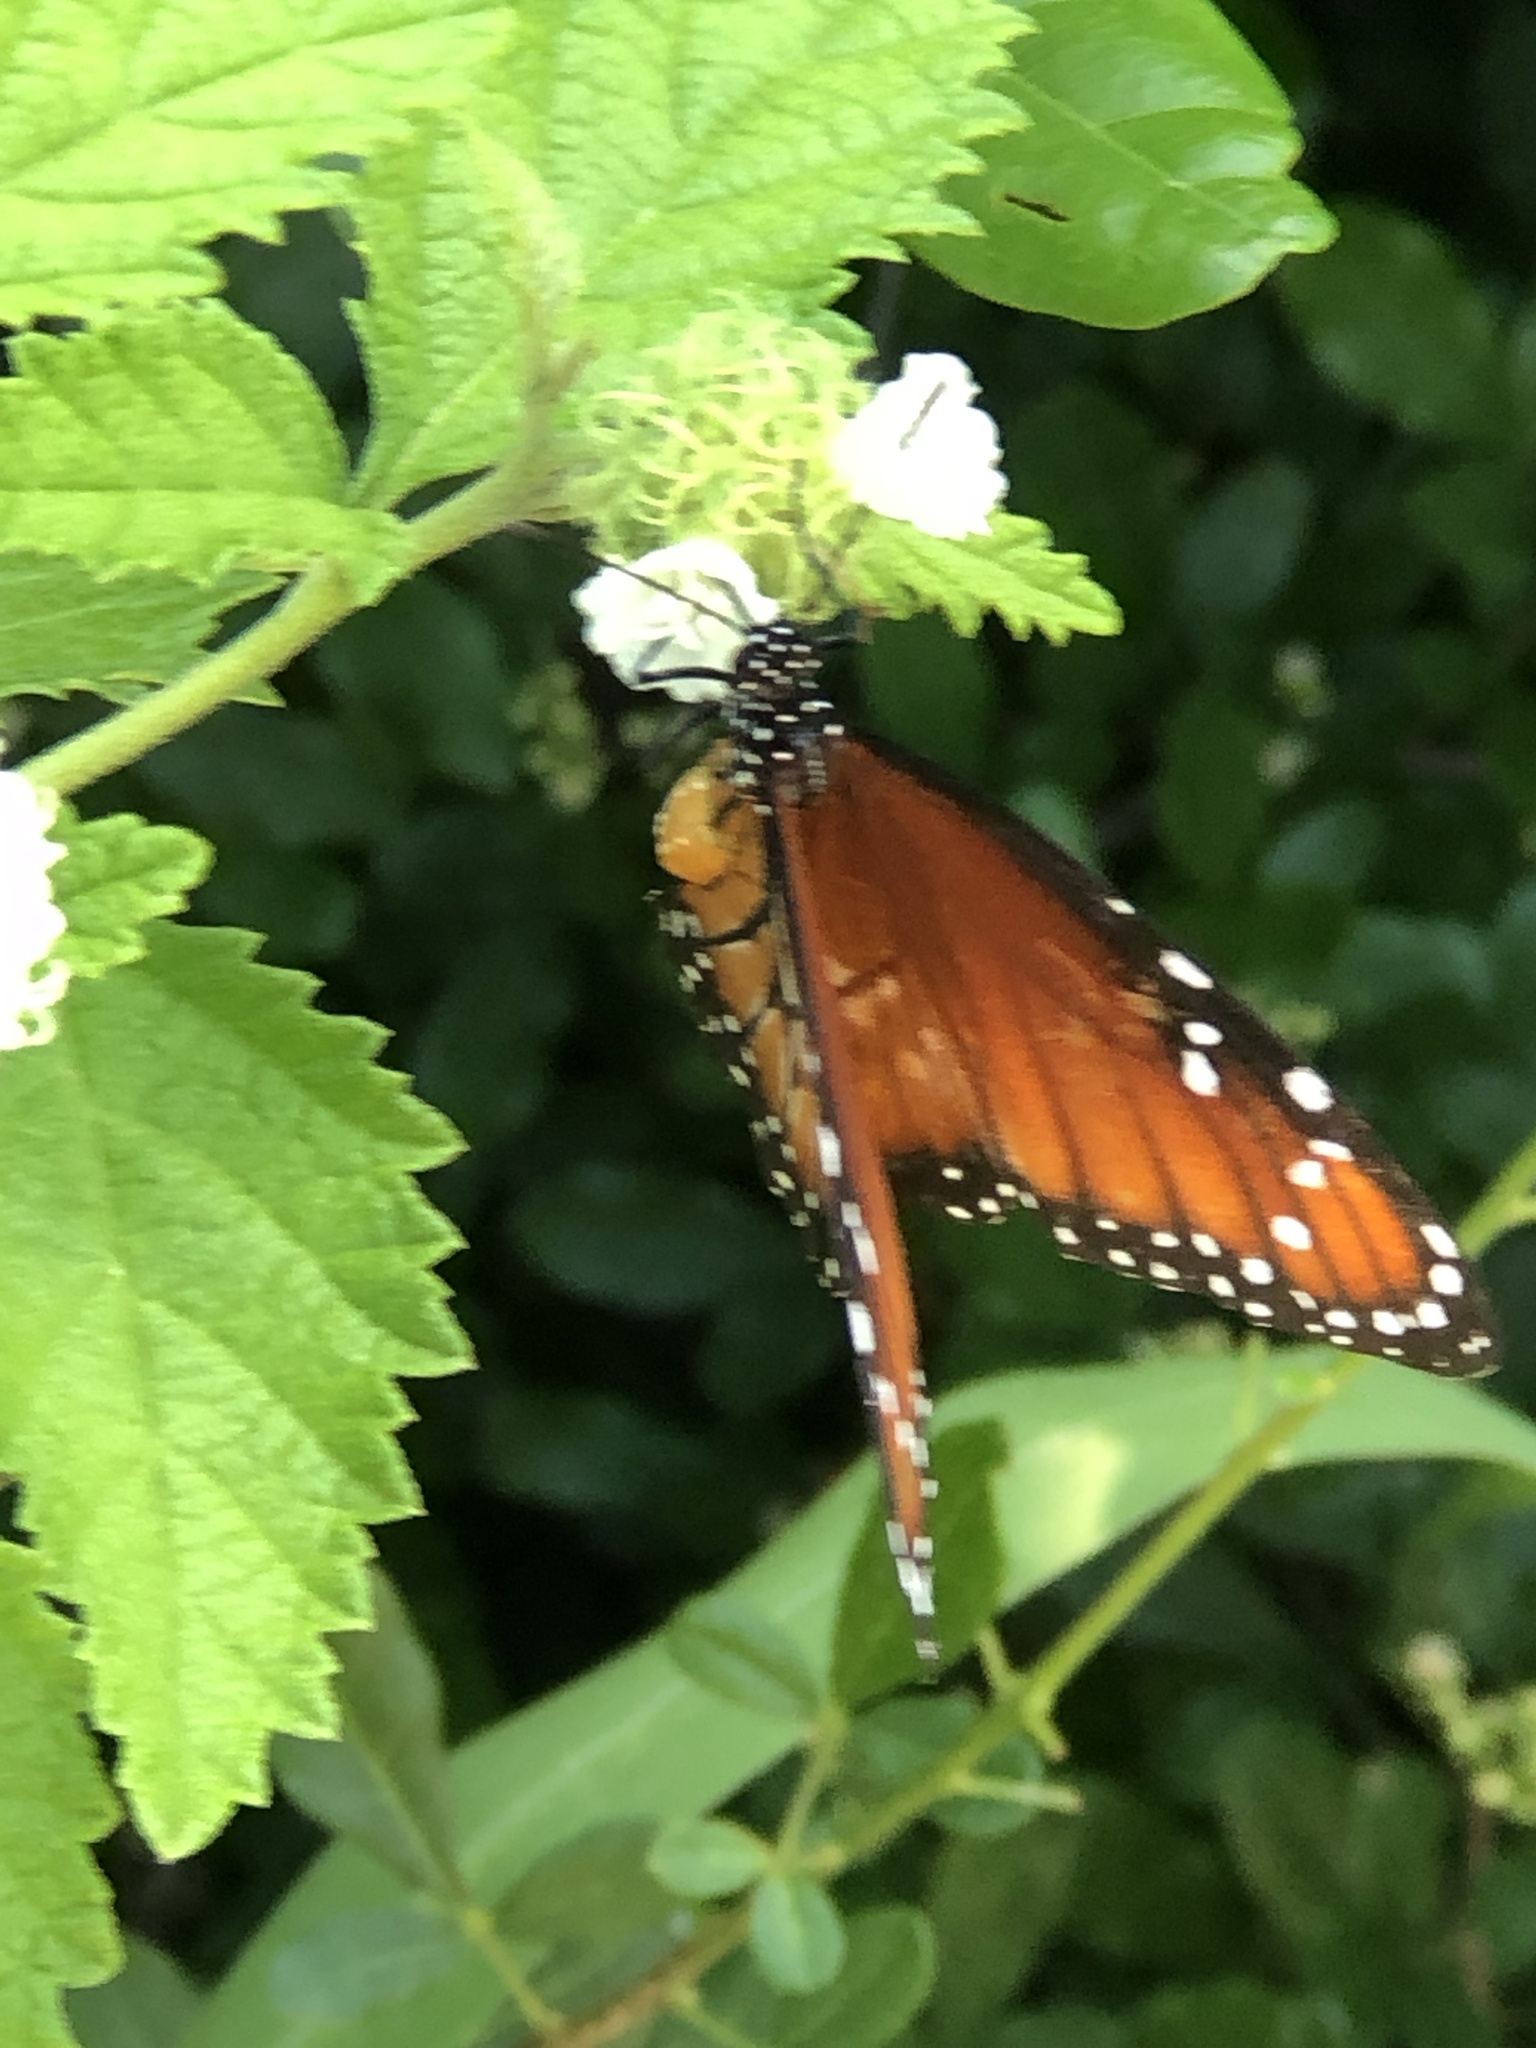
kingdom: Animalia
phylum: Arthropoda
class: Insecta
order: Lepidoptera
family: Nymphalidae
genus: Danaus
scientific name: Danaus eresimus
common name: Soldier
